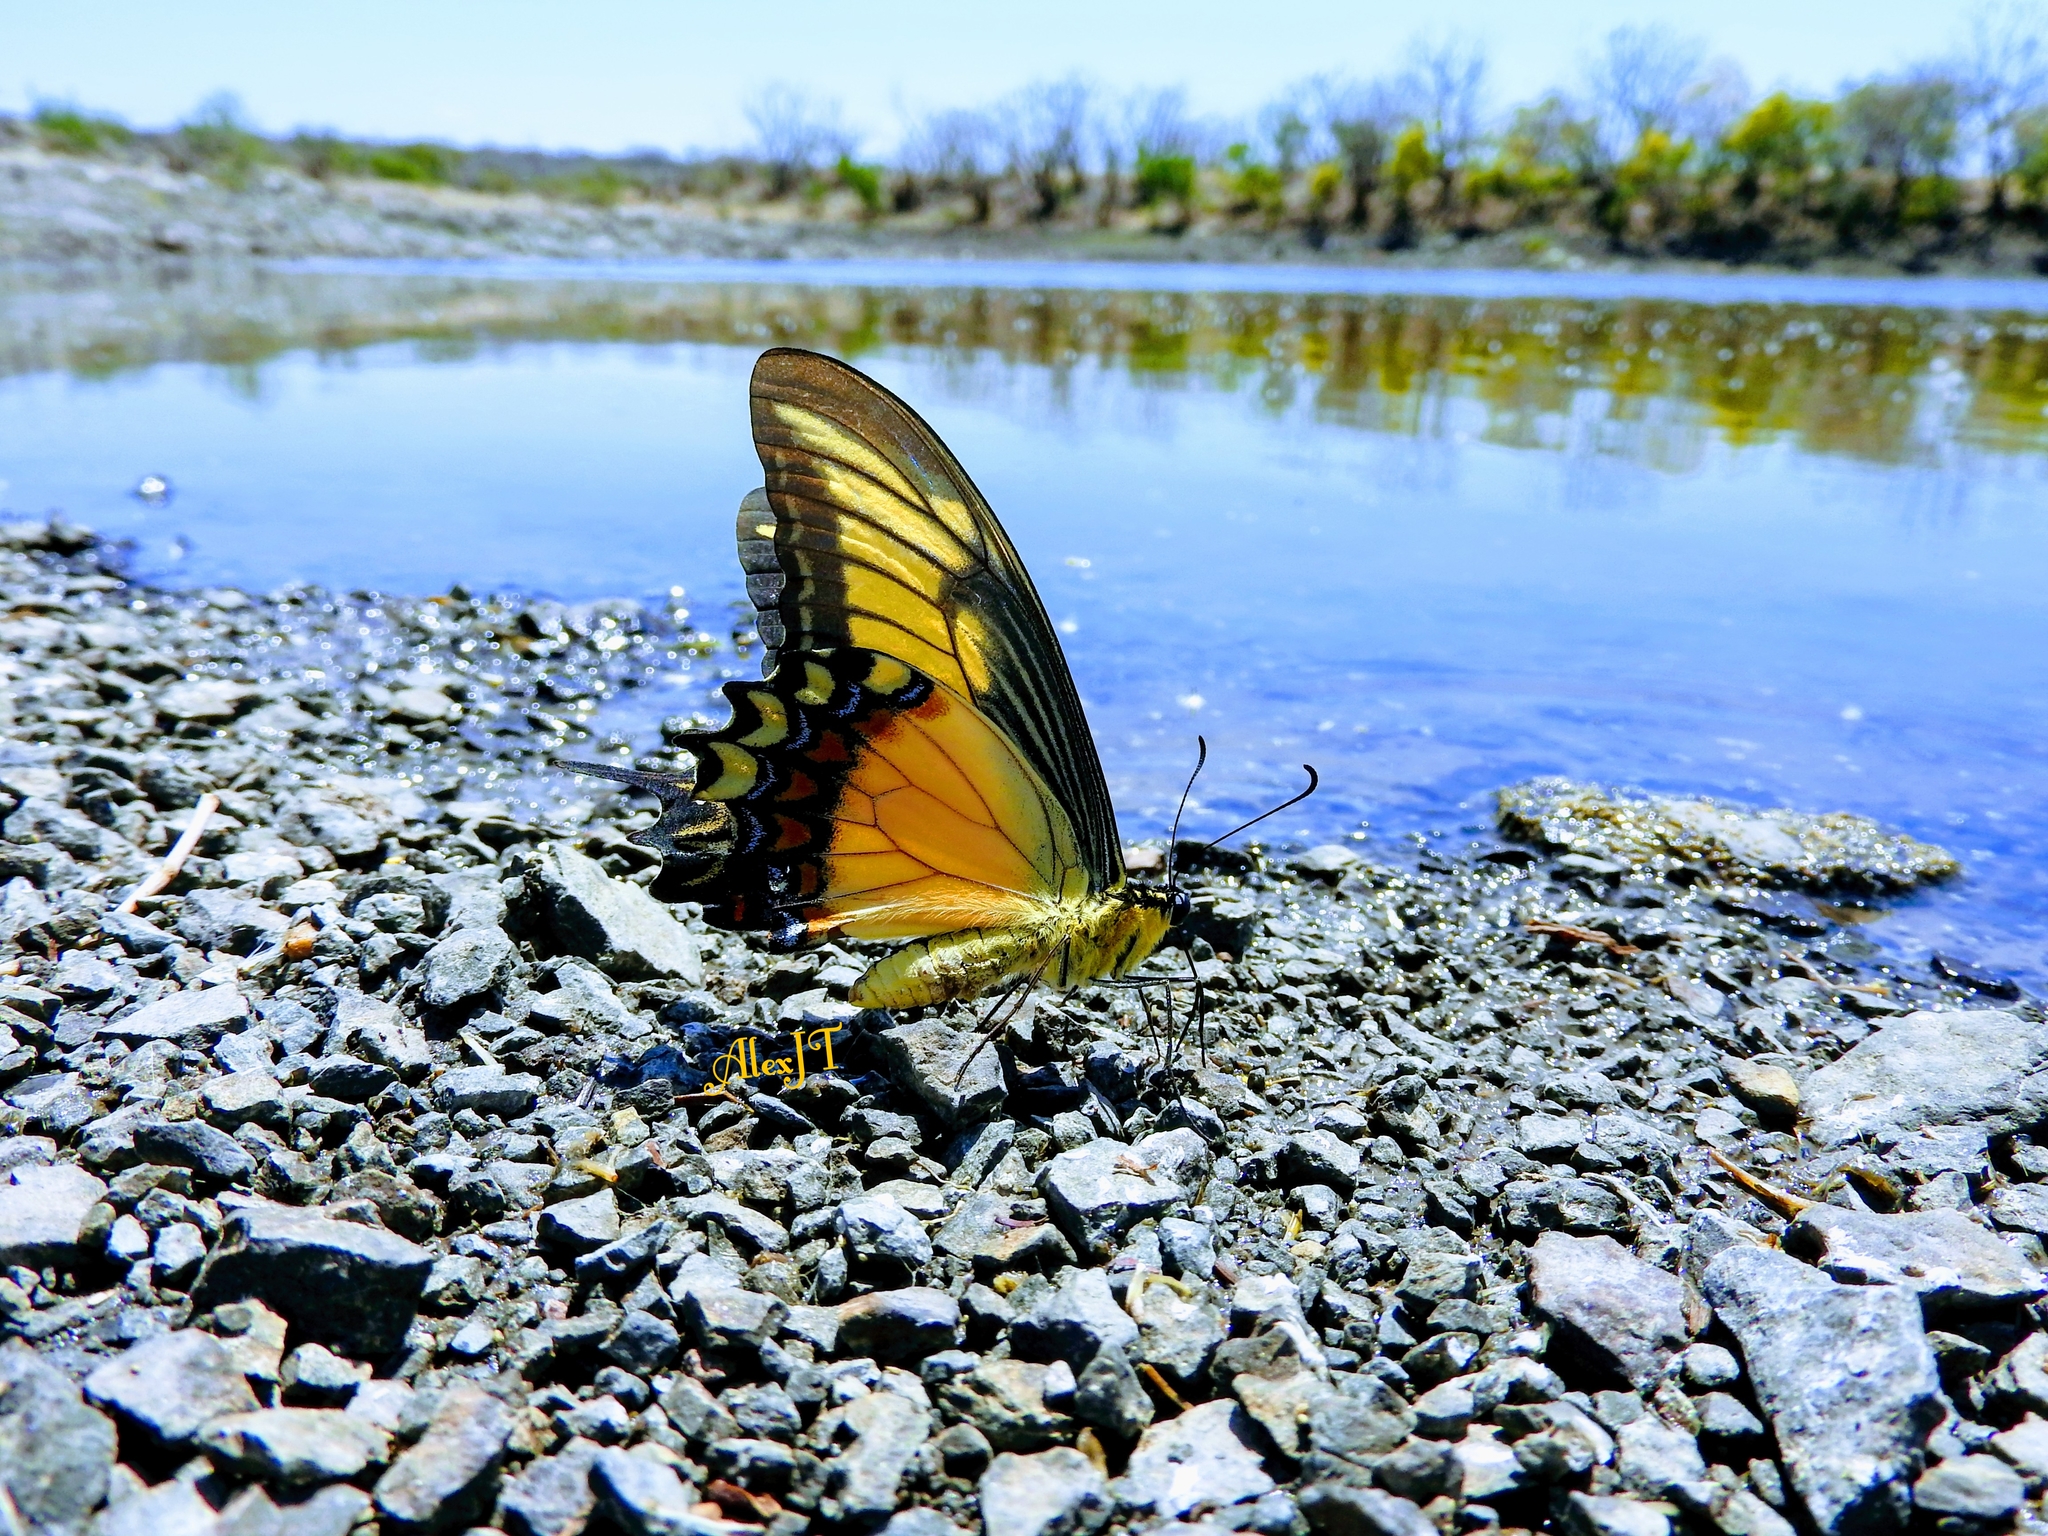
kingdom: Animalia
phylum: Arthropoda
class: Insecta
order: Lepidoptera
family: Papilionidae
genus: Papilio
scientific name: Papilio androgeus
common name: Androgeus swallowtail
